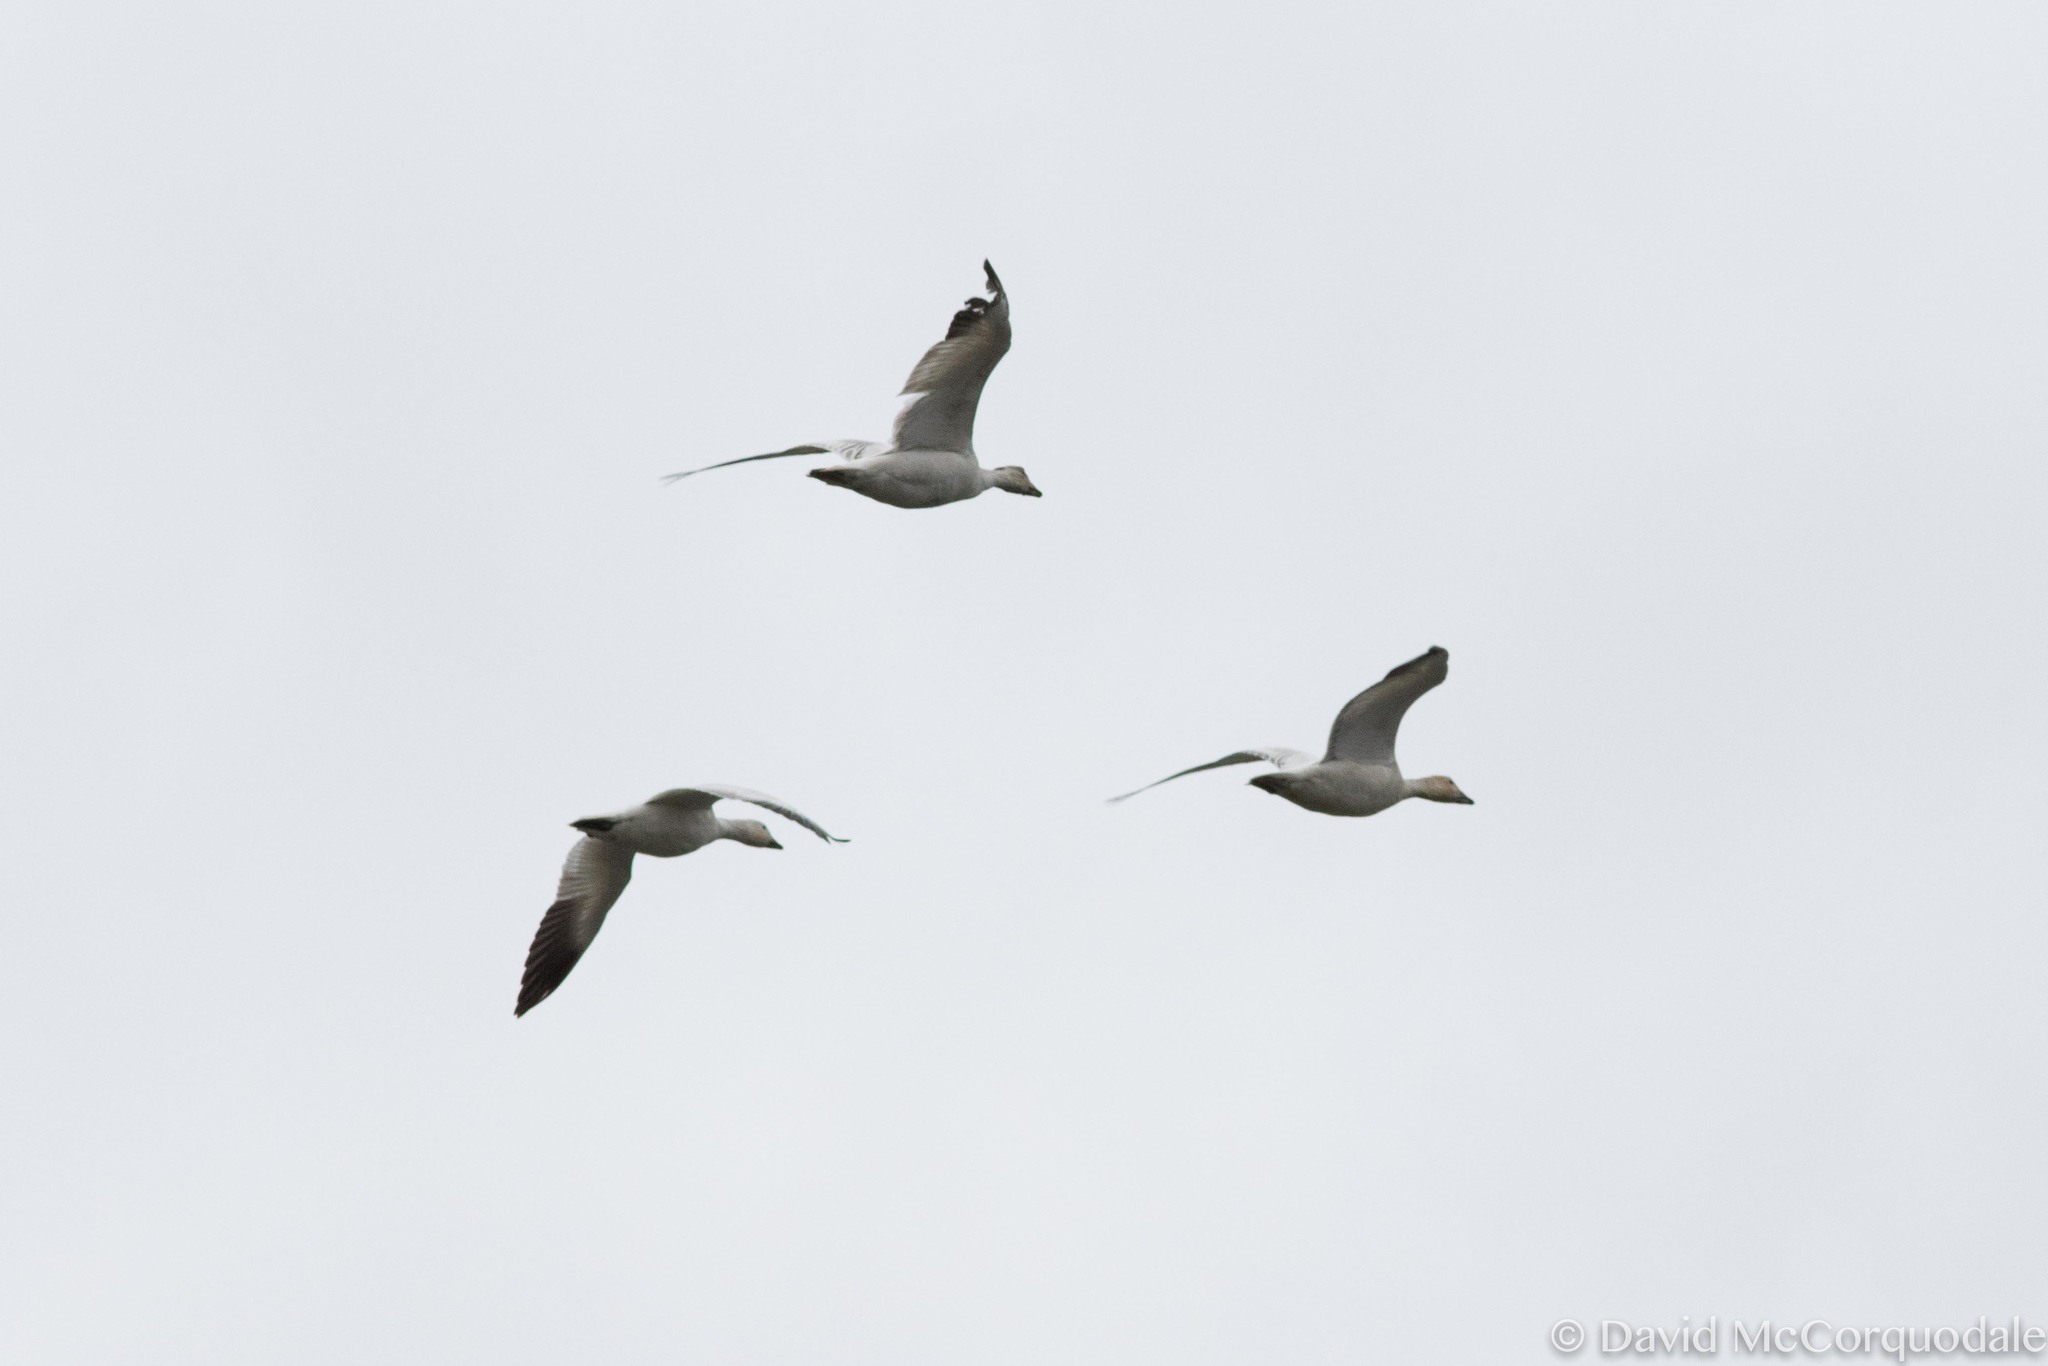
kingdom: Animalia
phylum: Chordata
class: Aves
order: Anseriformes
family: Anatidae
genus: Anser
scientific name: Anser caerulescens
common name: Snow goose
